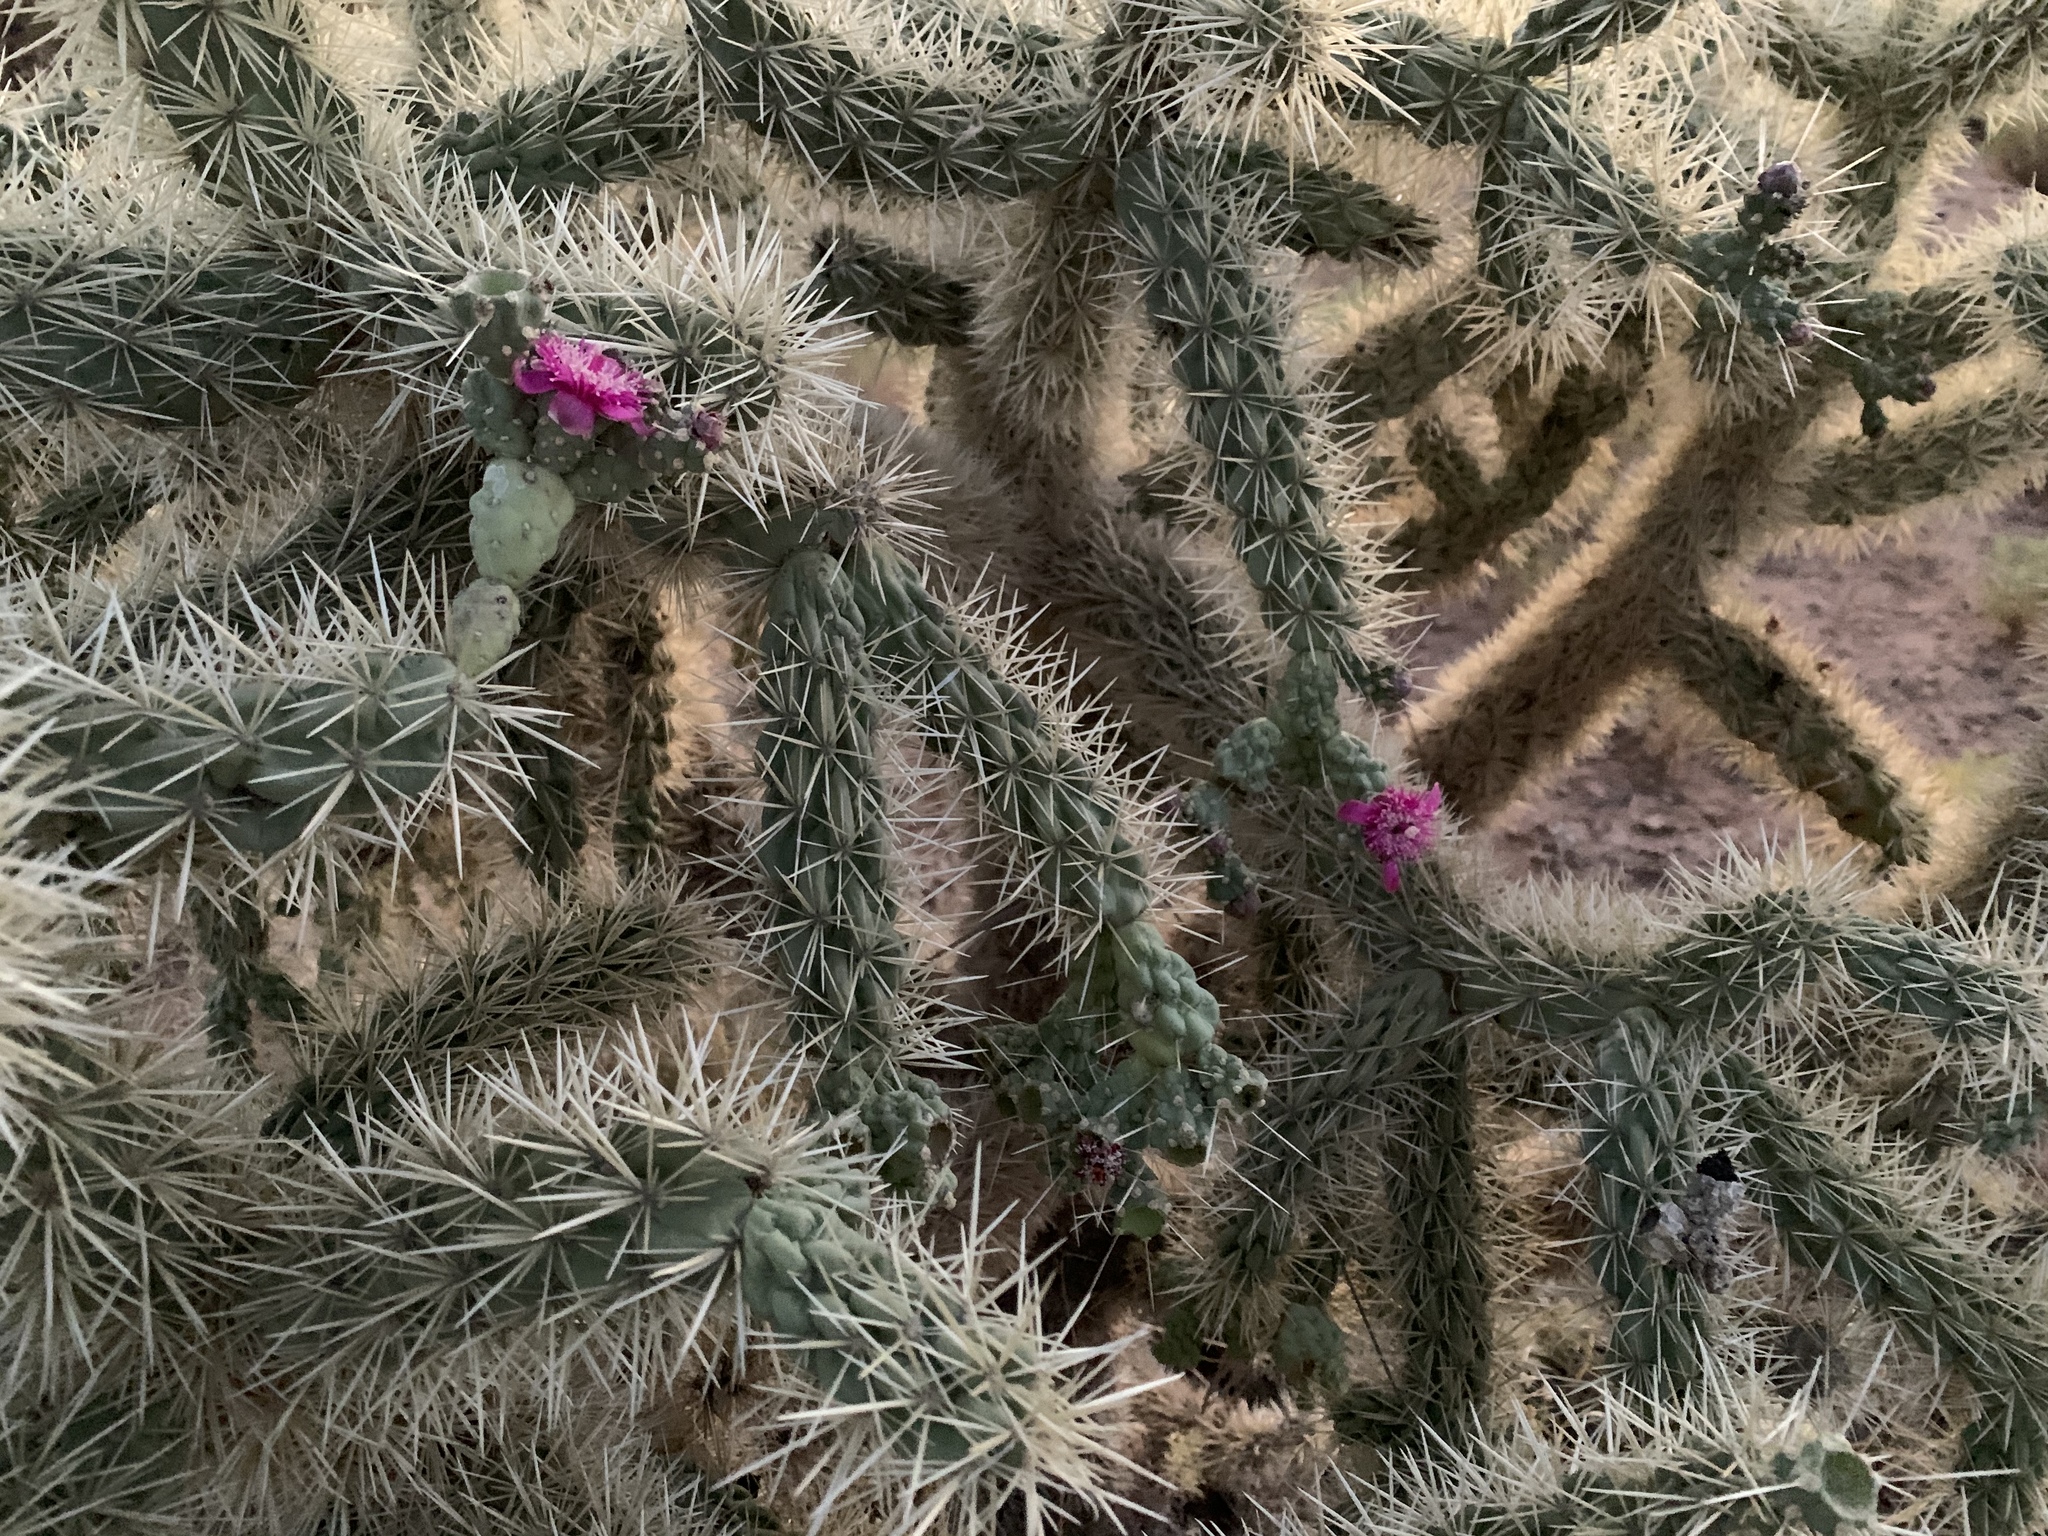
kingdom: Plantae
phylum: Tracheophyta
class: Magnoliopsida
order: Caryophyllales
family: Cactaceae
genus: Cylindropuntia
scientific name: Cylindropuntia fulgida
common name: Jumping cholla
